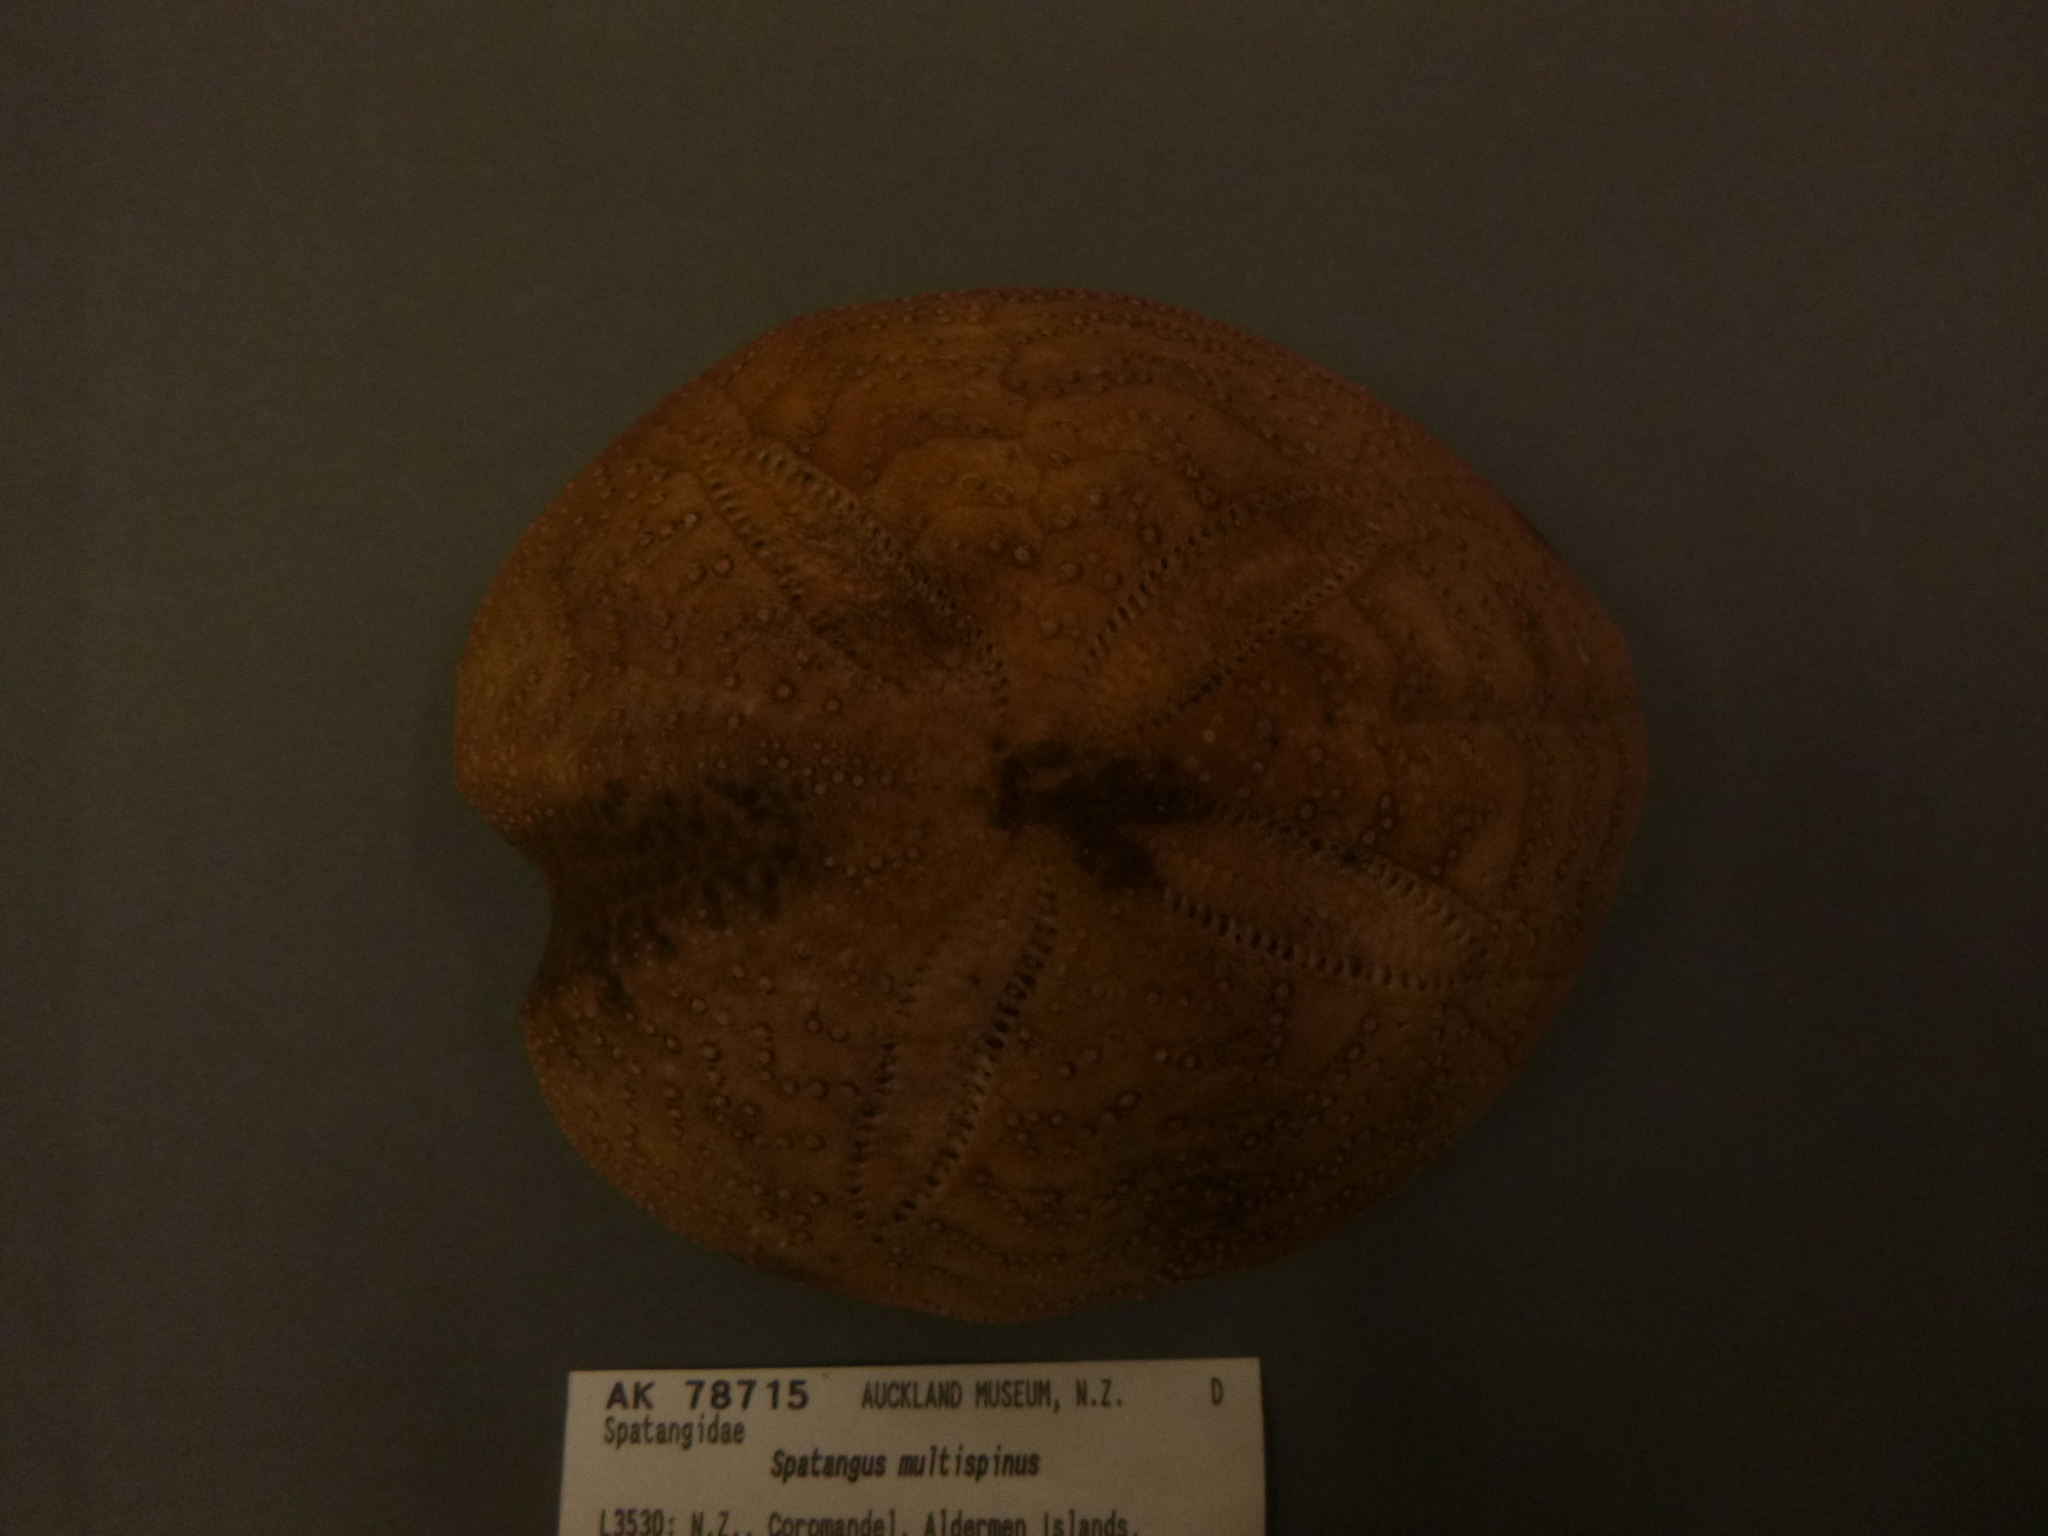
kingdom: Animalia
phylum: Echinodermata
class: Echinoidea
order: Spatangoida
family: Spatangidae
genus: Spatangus
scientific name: Spatangus multispinus
